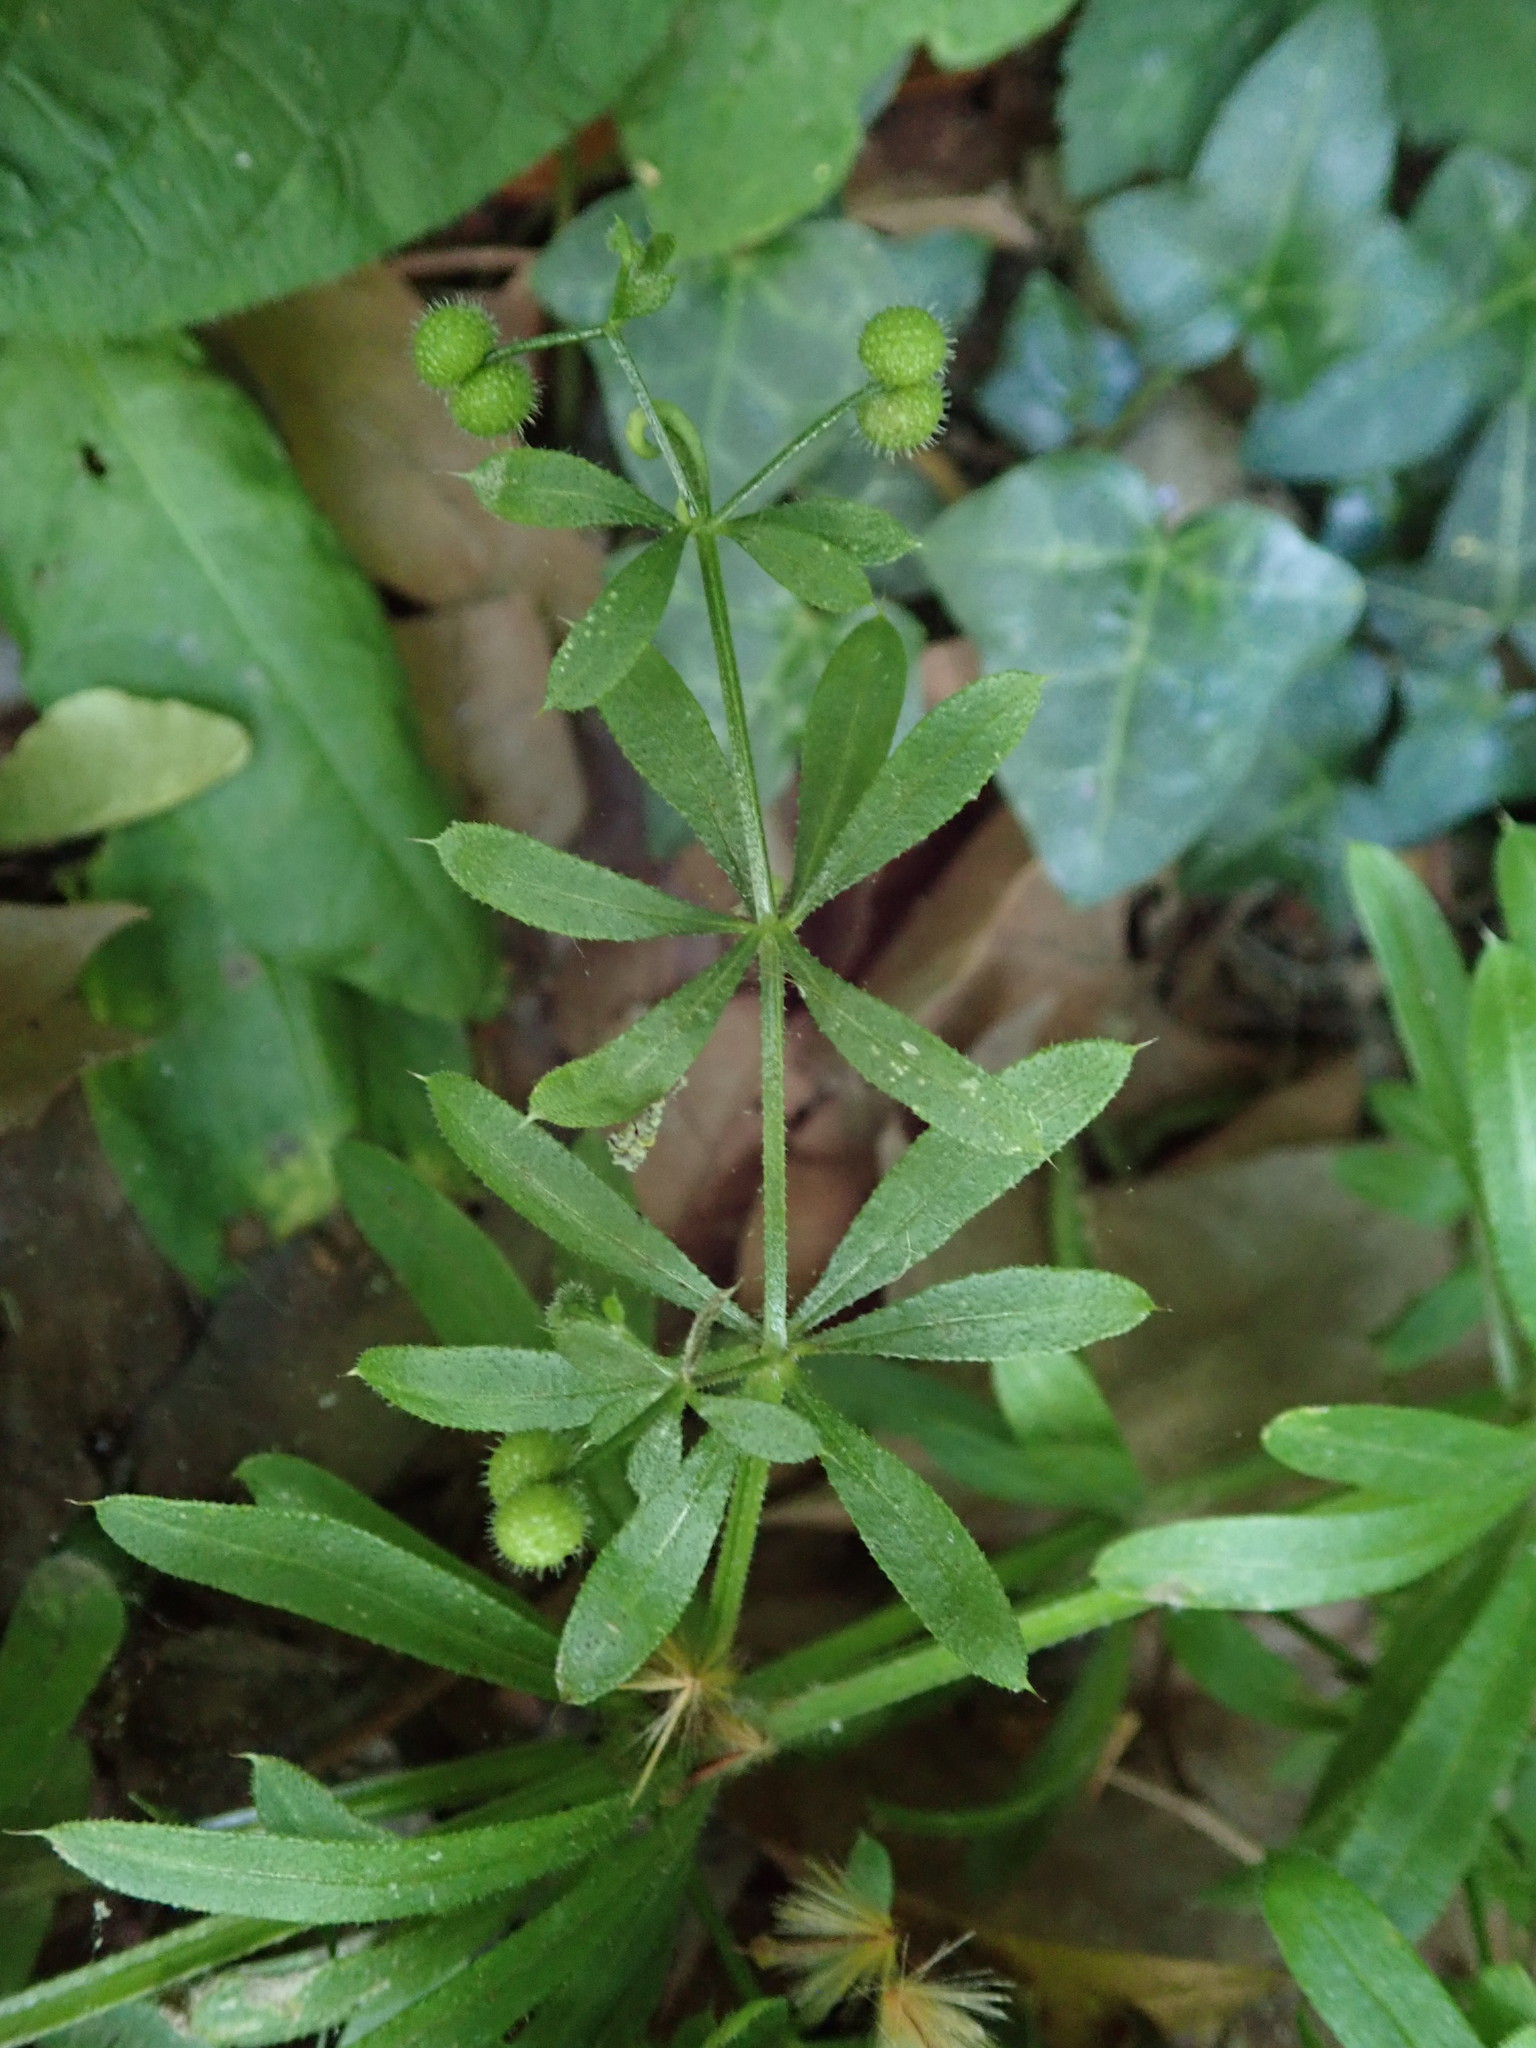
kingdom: Plantae
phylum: Tracheophyta
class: Magnoliopsida
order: Gentianales
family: Rubiaceae
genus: Galium
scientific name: Galium aparine
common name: Cleavers
